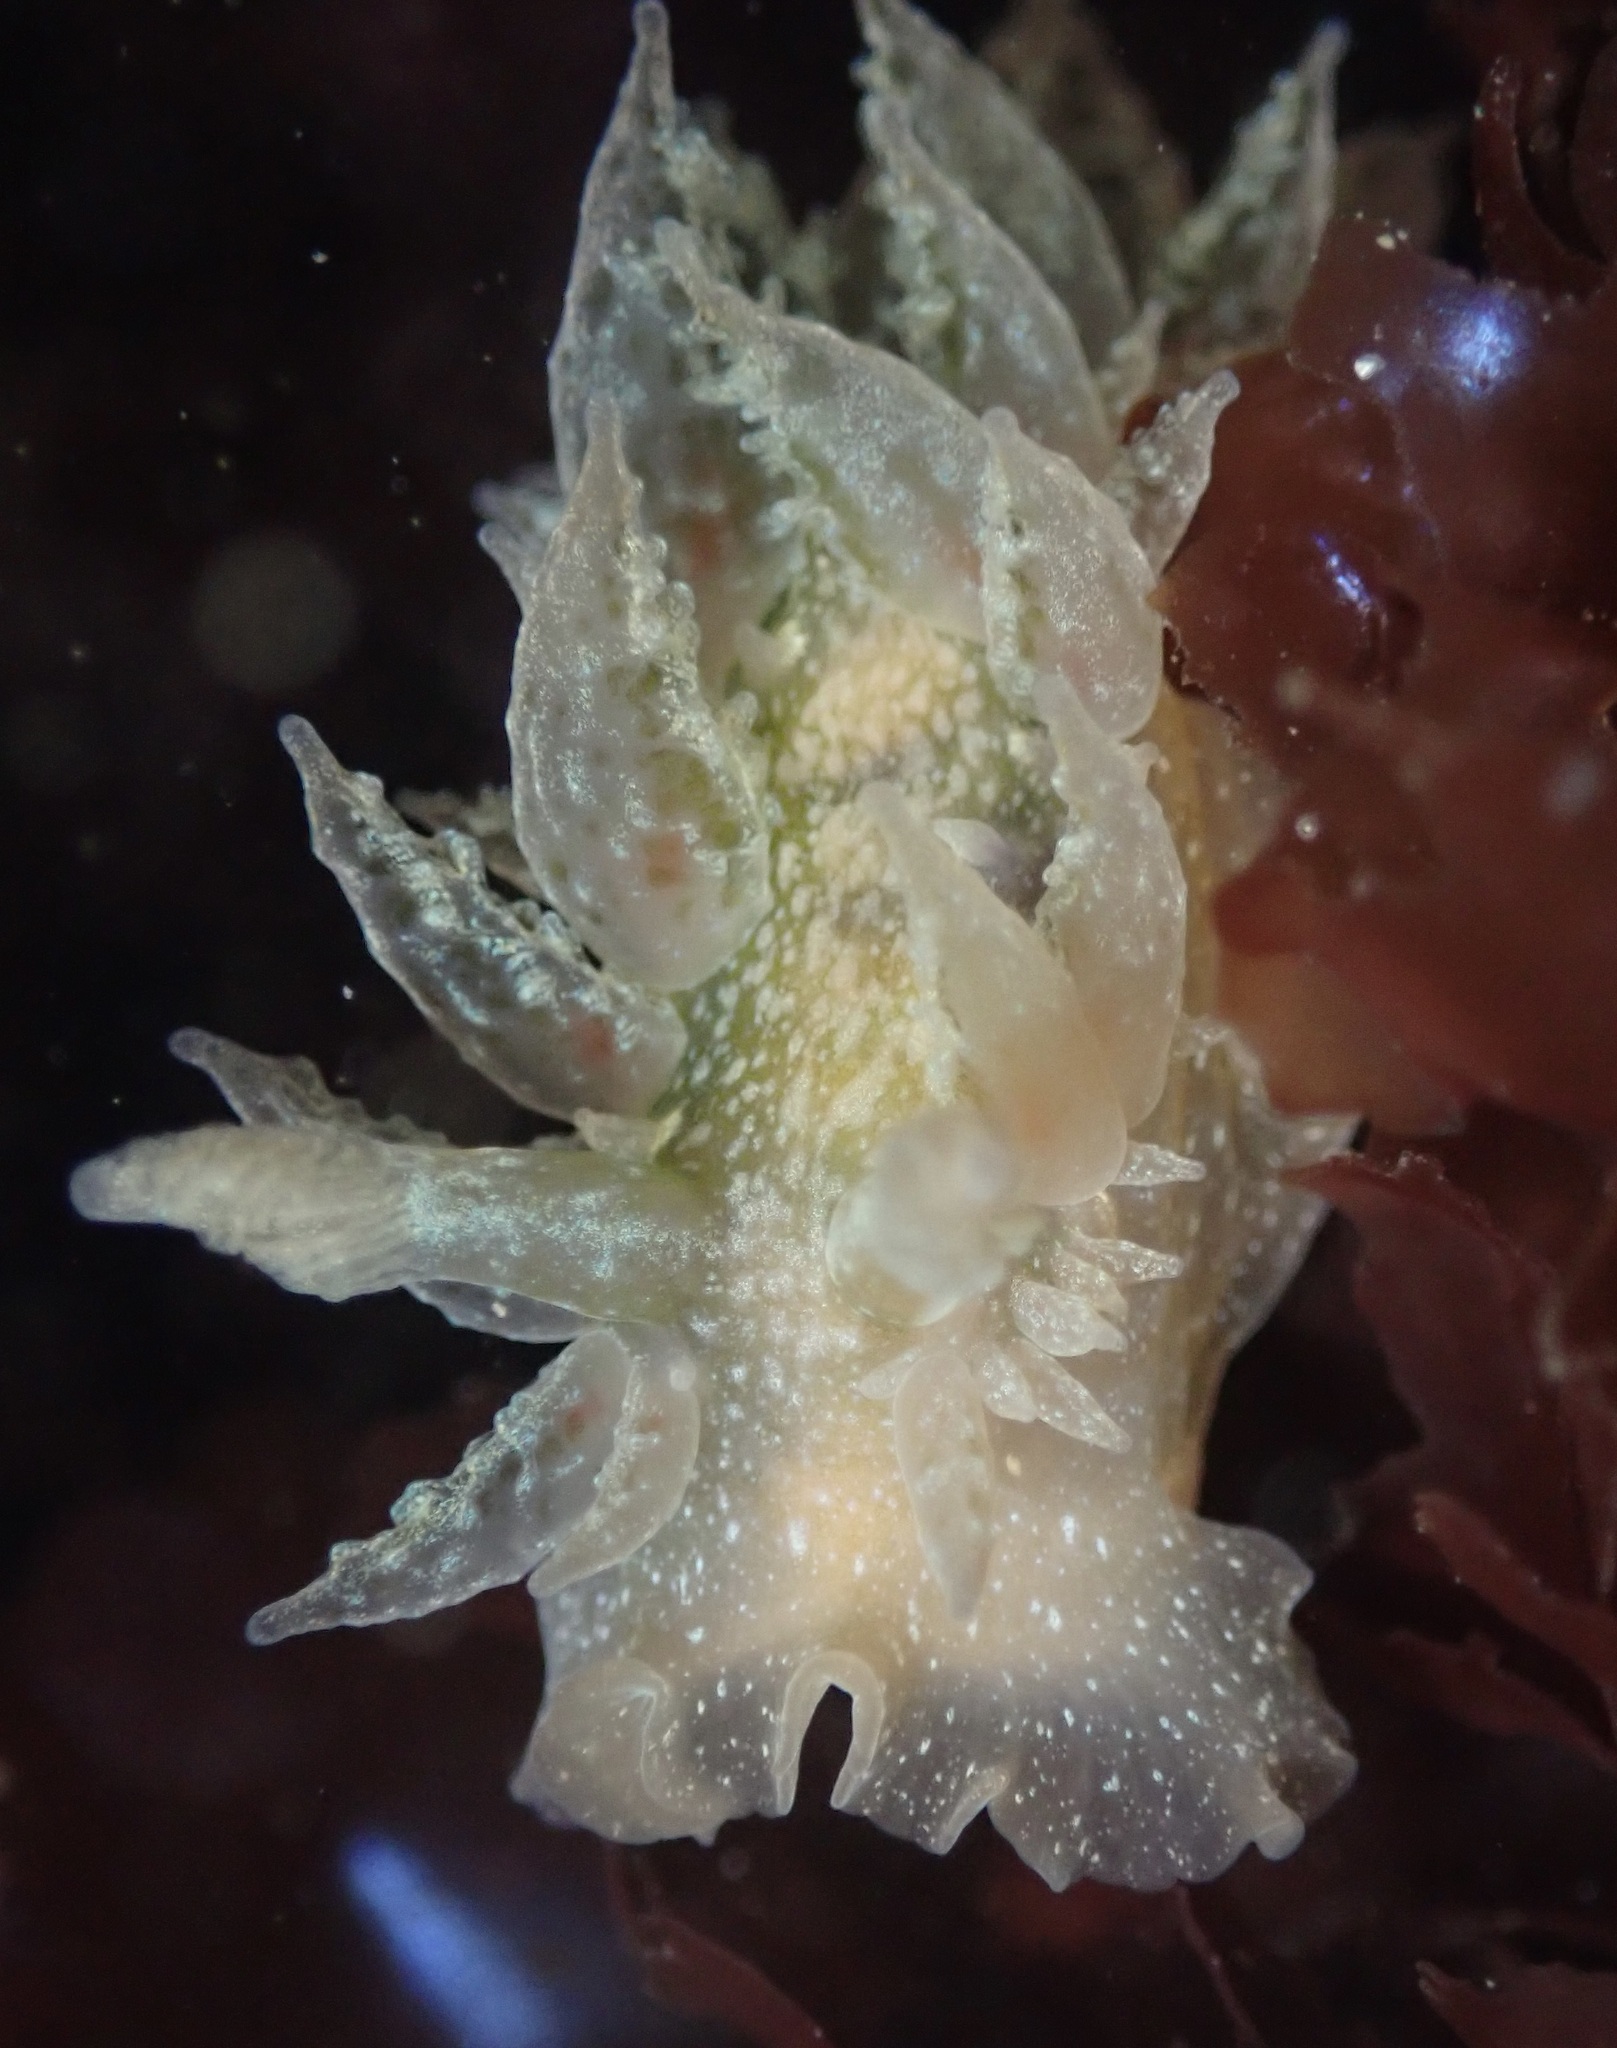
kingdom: Animalia
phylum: Mollusca
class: Gastropoda
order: Nudibranchia
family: Dironidae
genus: Dirona
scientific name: Dirona picta
